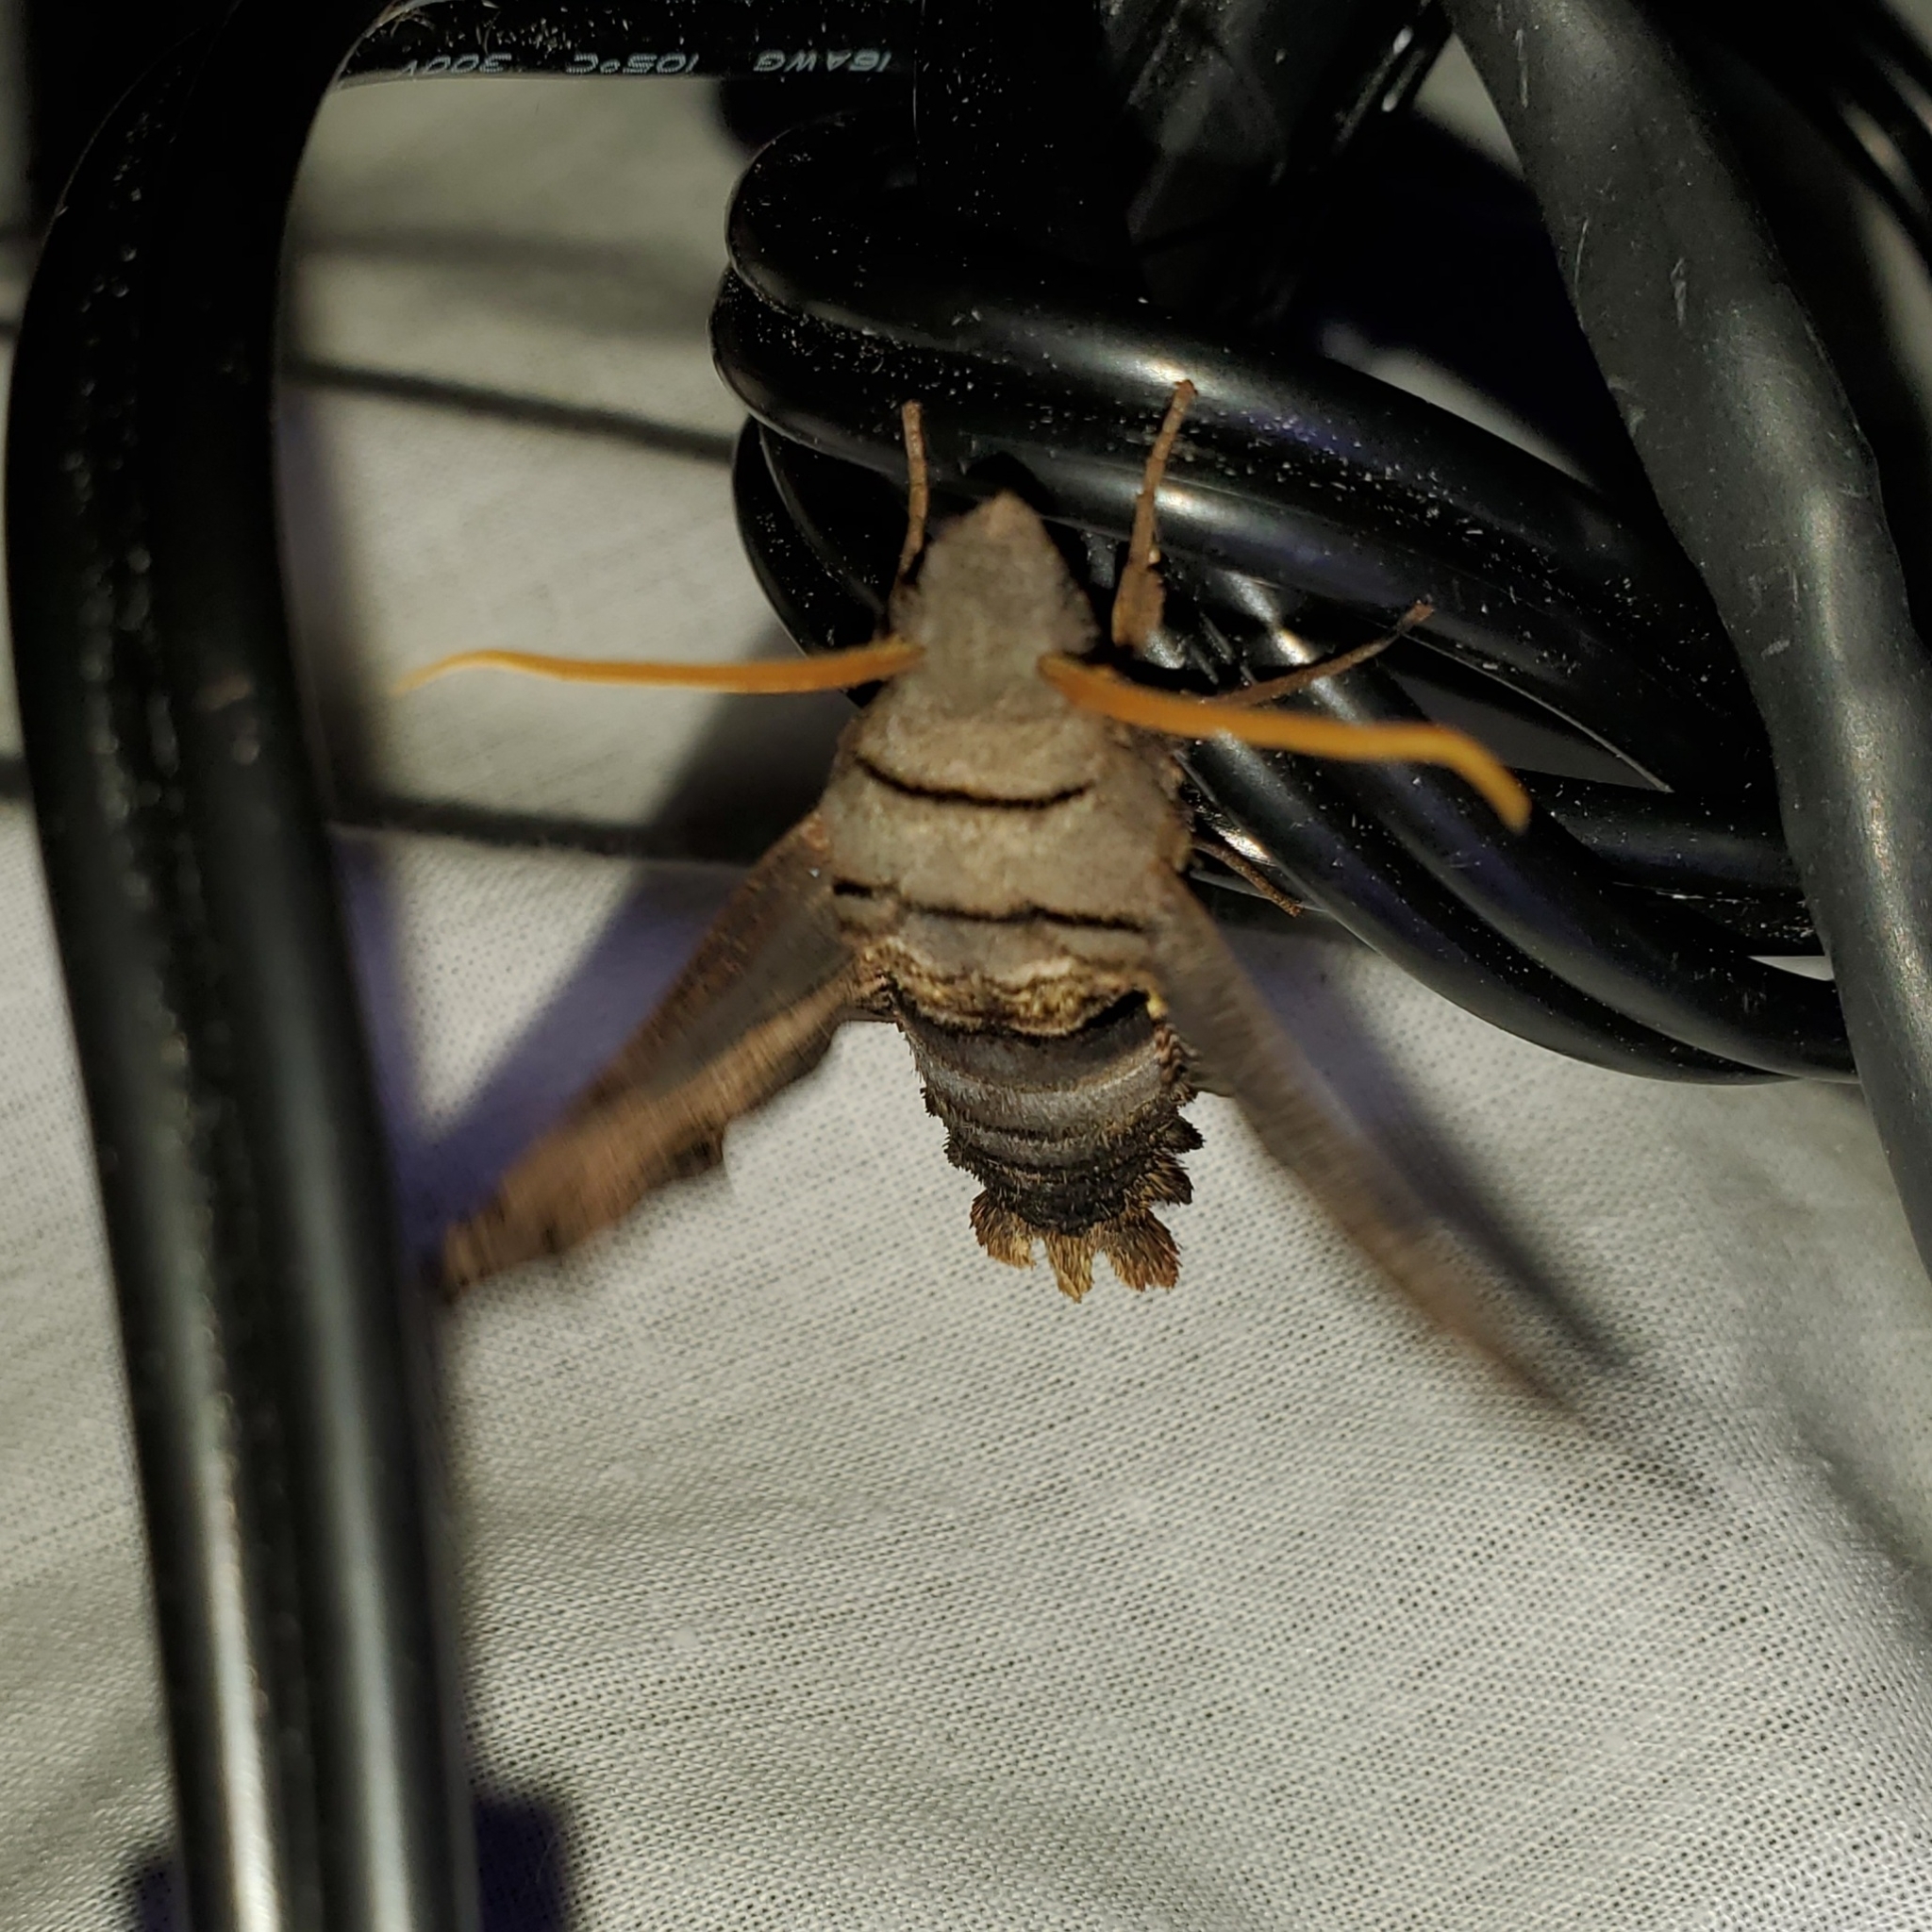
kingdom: Animalia
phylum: Arthropoda
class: Insecta
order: Lepidoptera
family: Sphingidae
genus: Sphecodina
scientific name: Sphecodina abbottii
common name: Abbott's sphinx
